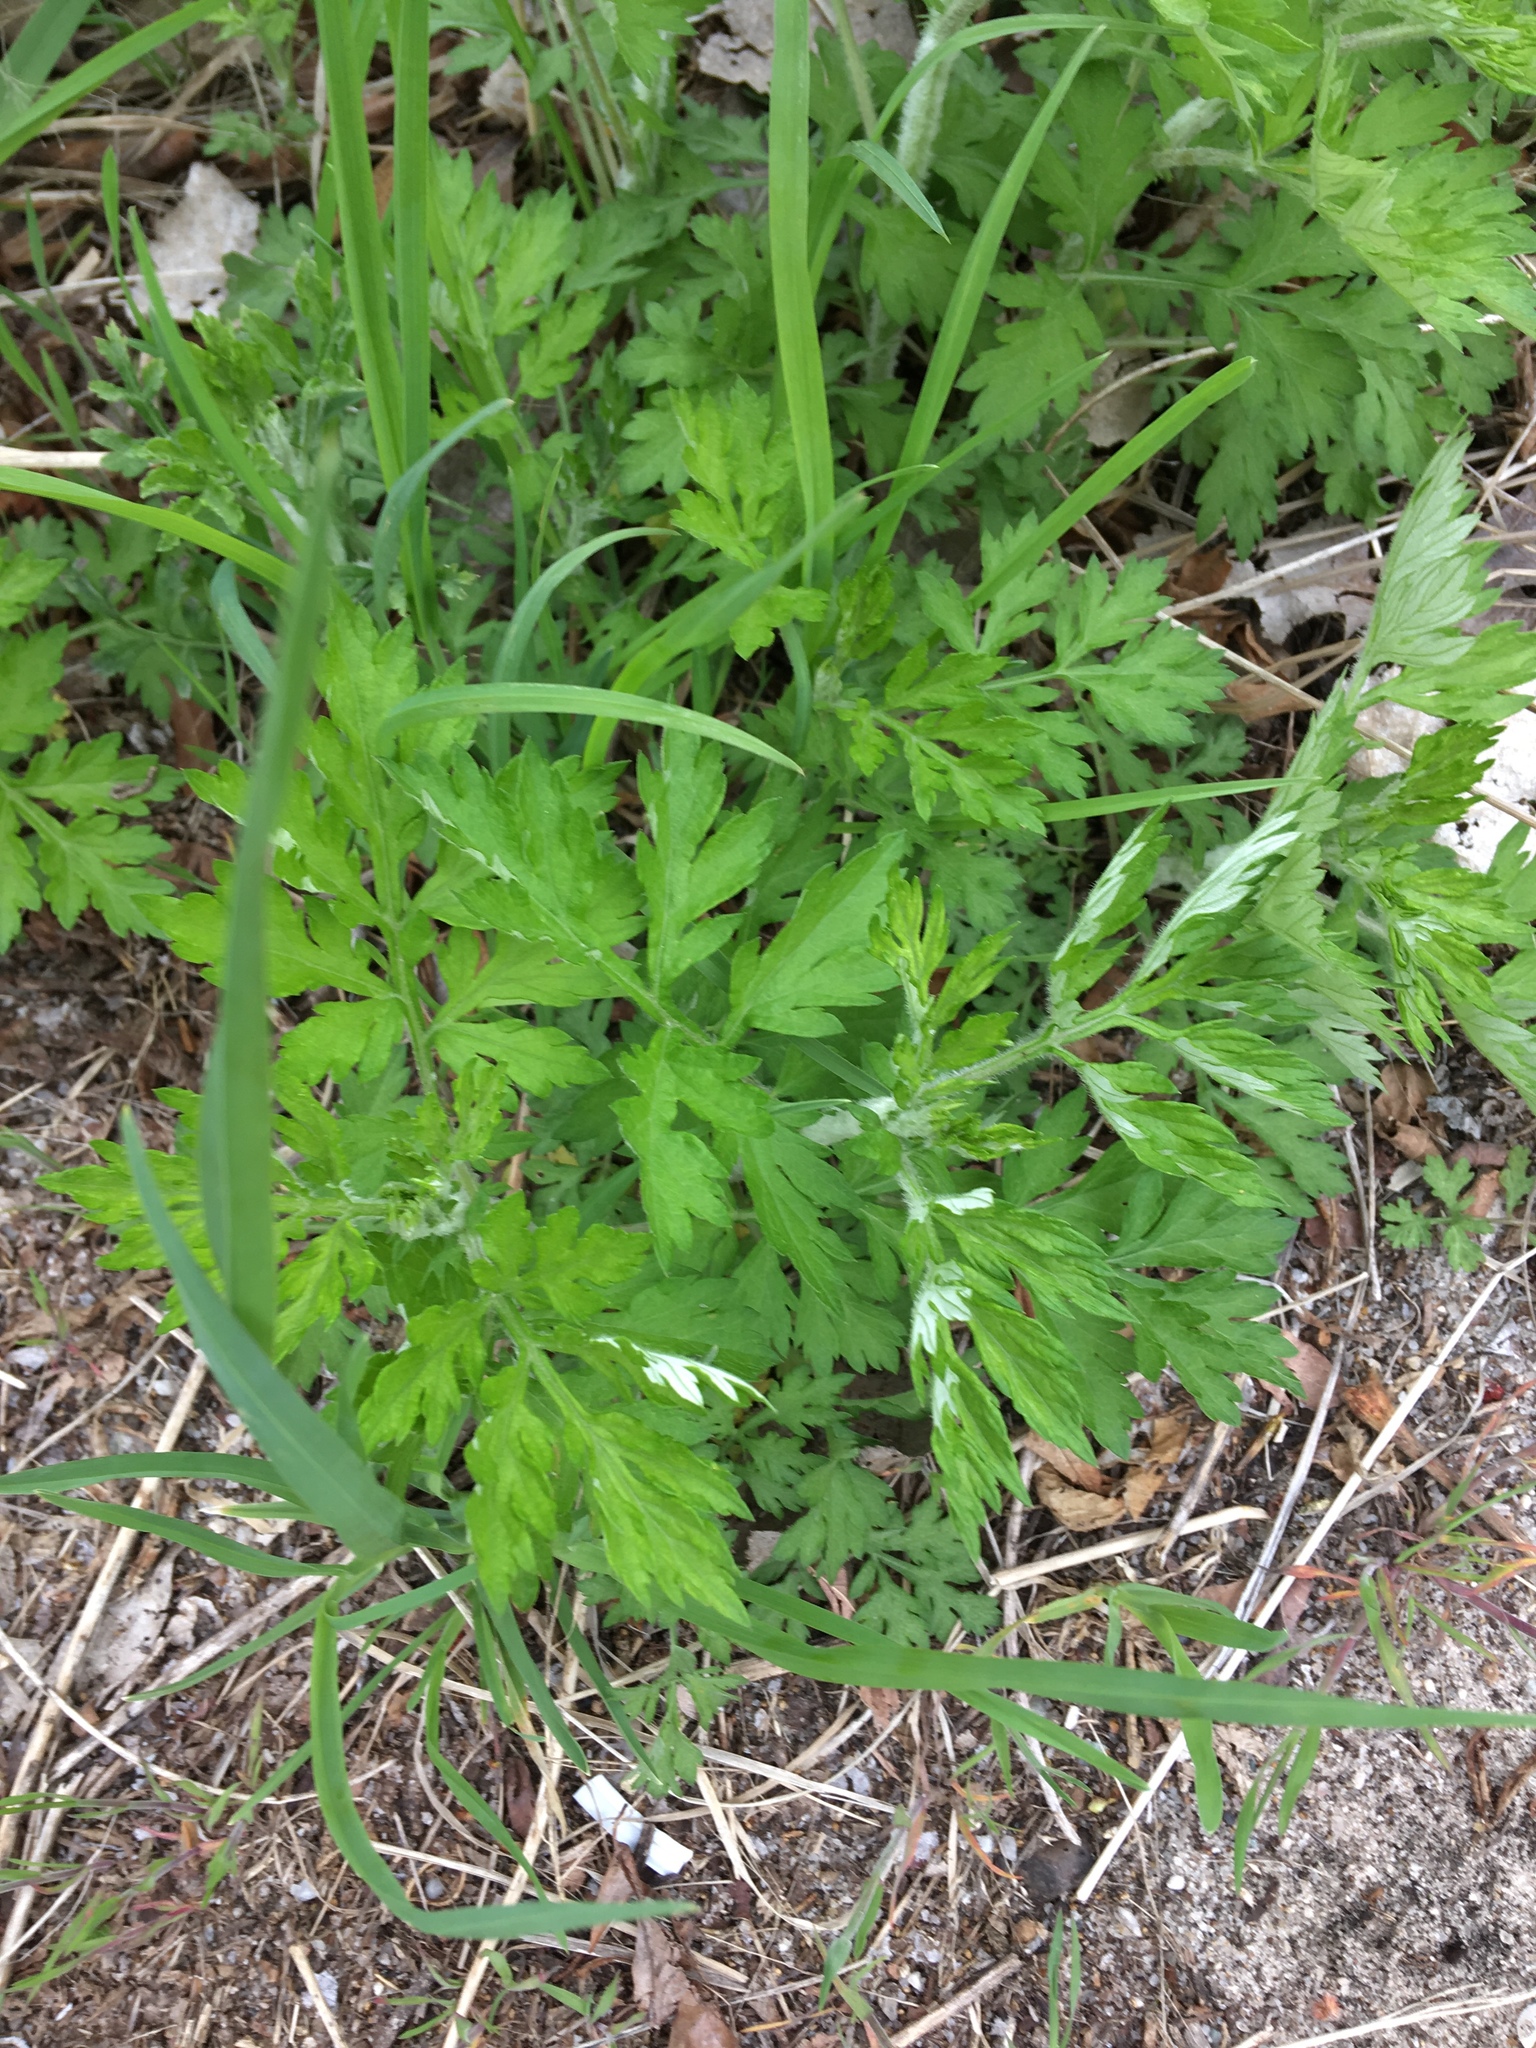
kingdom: Plantae
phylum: Tracheophyta
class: Magnoliopsida
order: Asterales
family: Asteraceae
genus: Artemisia
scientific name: Artemisia vulgaris
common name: Mugwort
